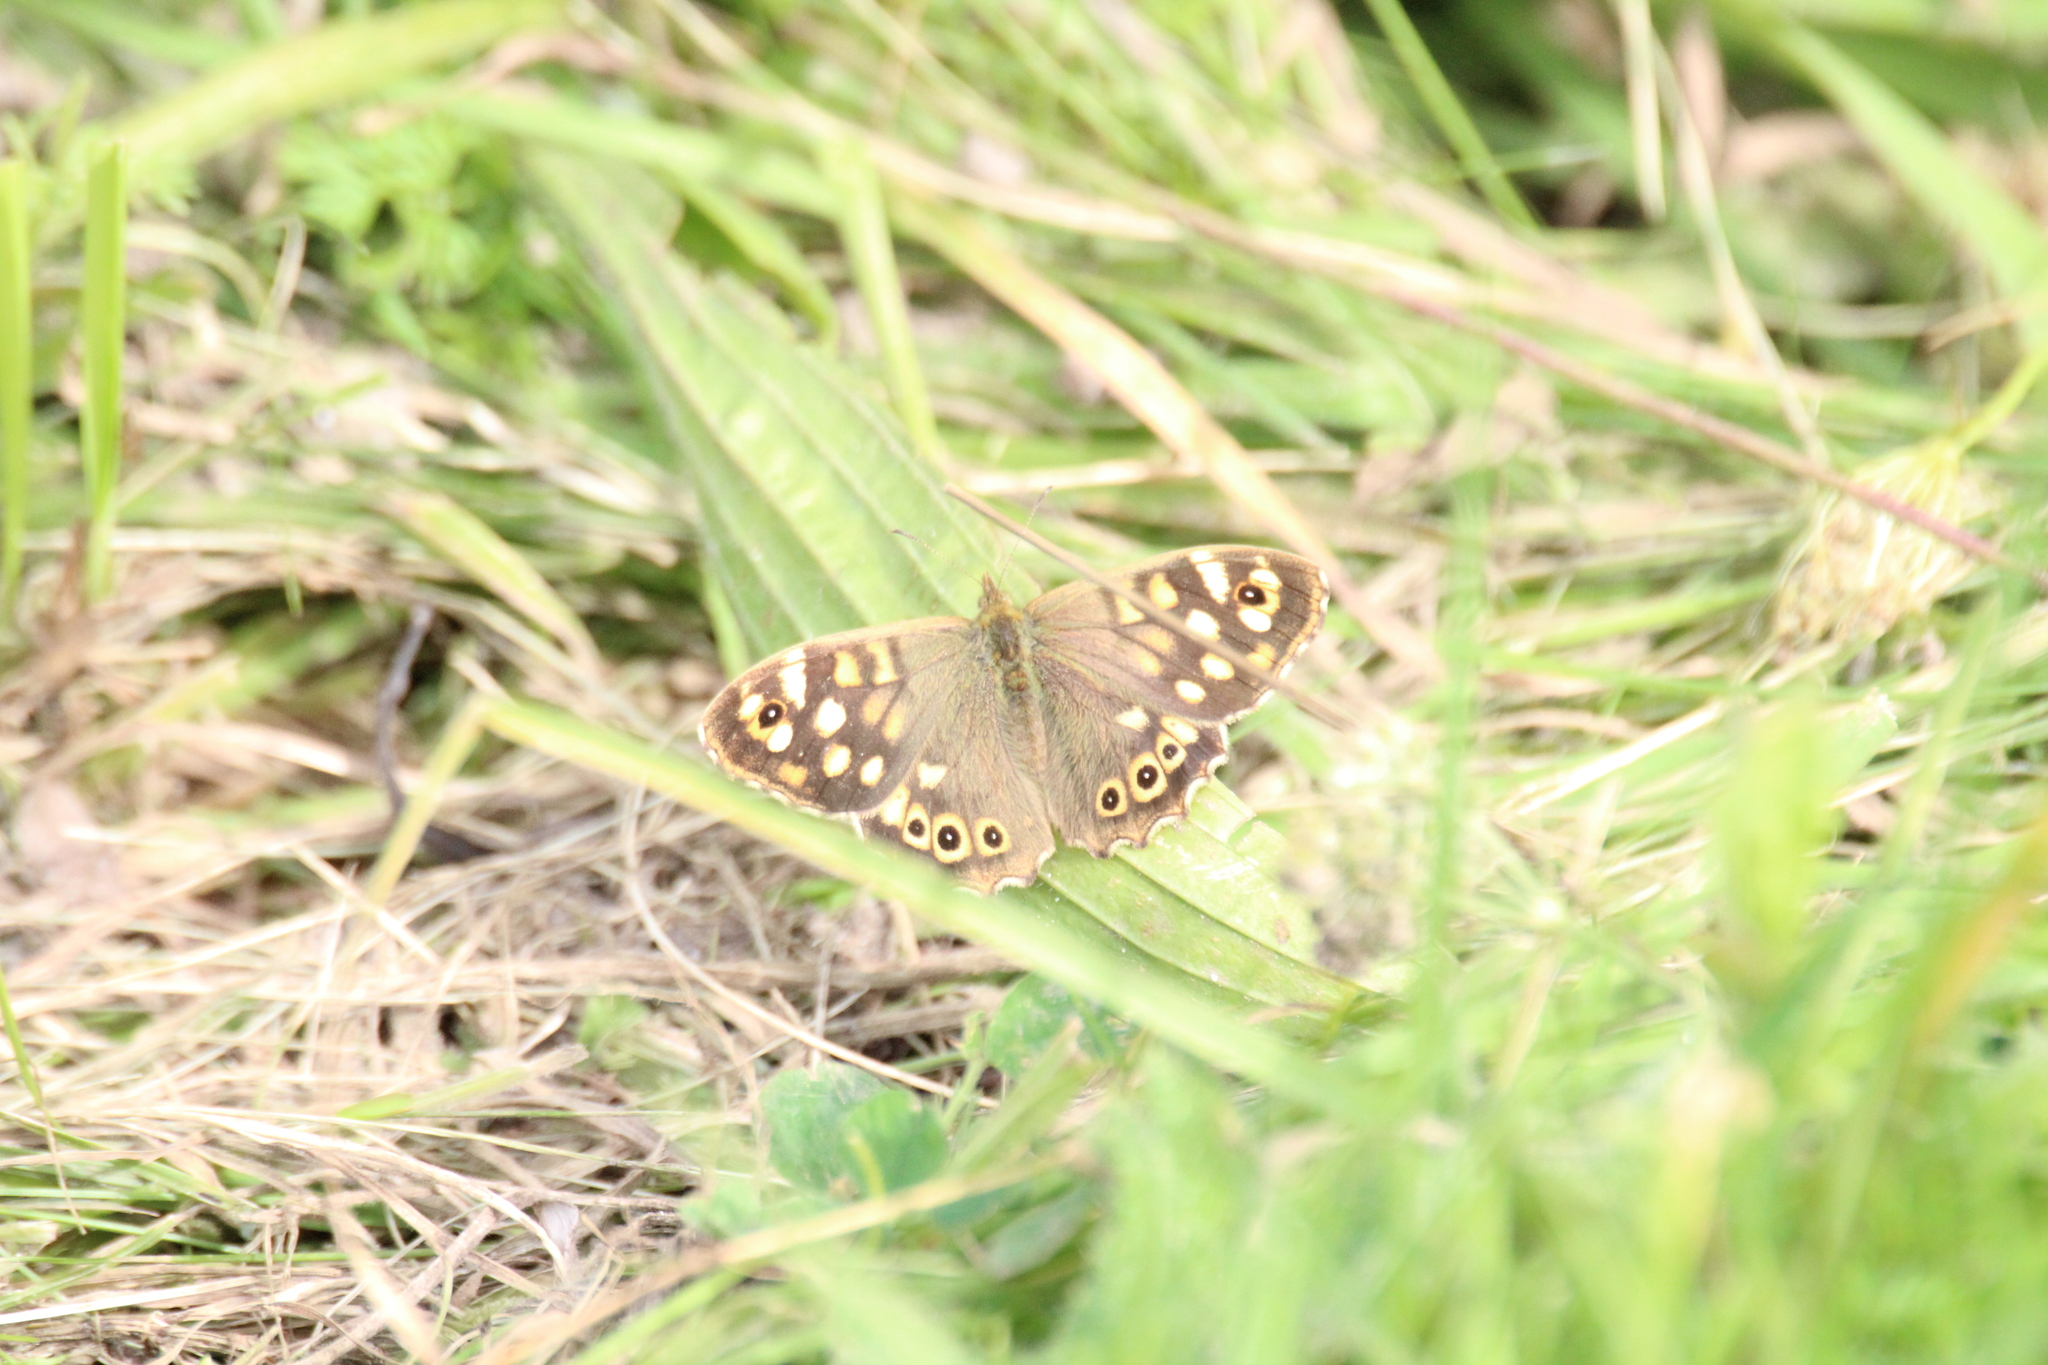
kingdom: Animalia
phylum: Arthropoda
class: Insecta
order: Lepidoptera
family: Nymphalidae
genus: Pararge
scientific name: Pararge aegeria
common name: Speckled wood
